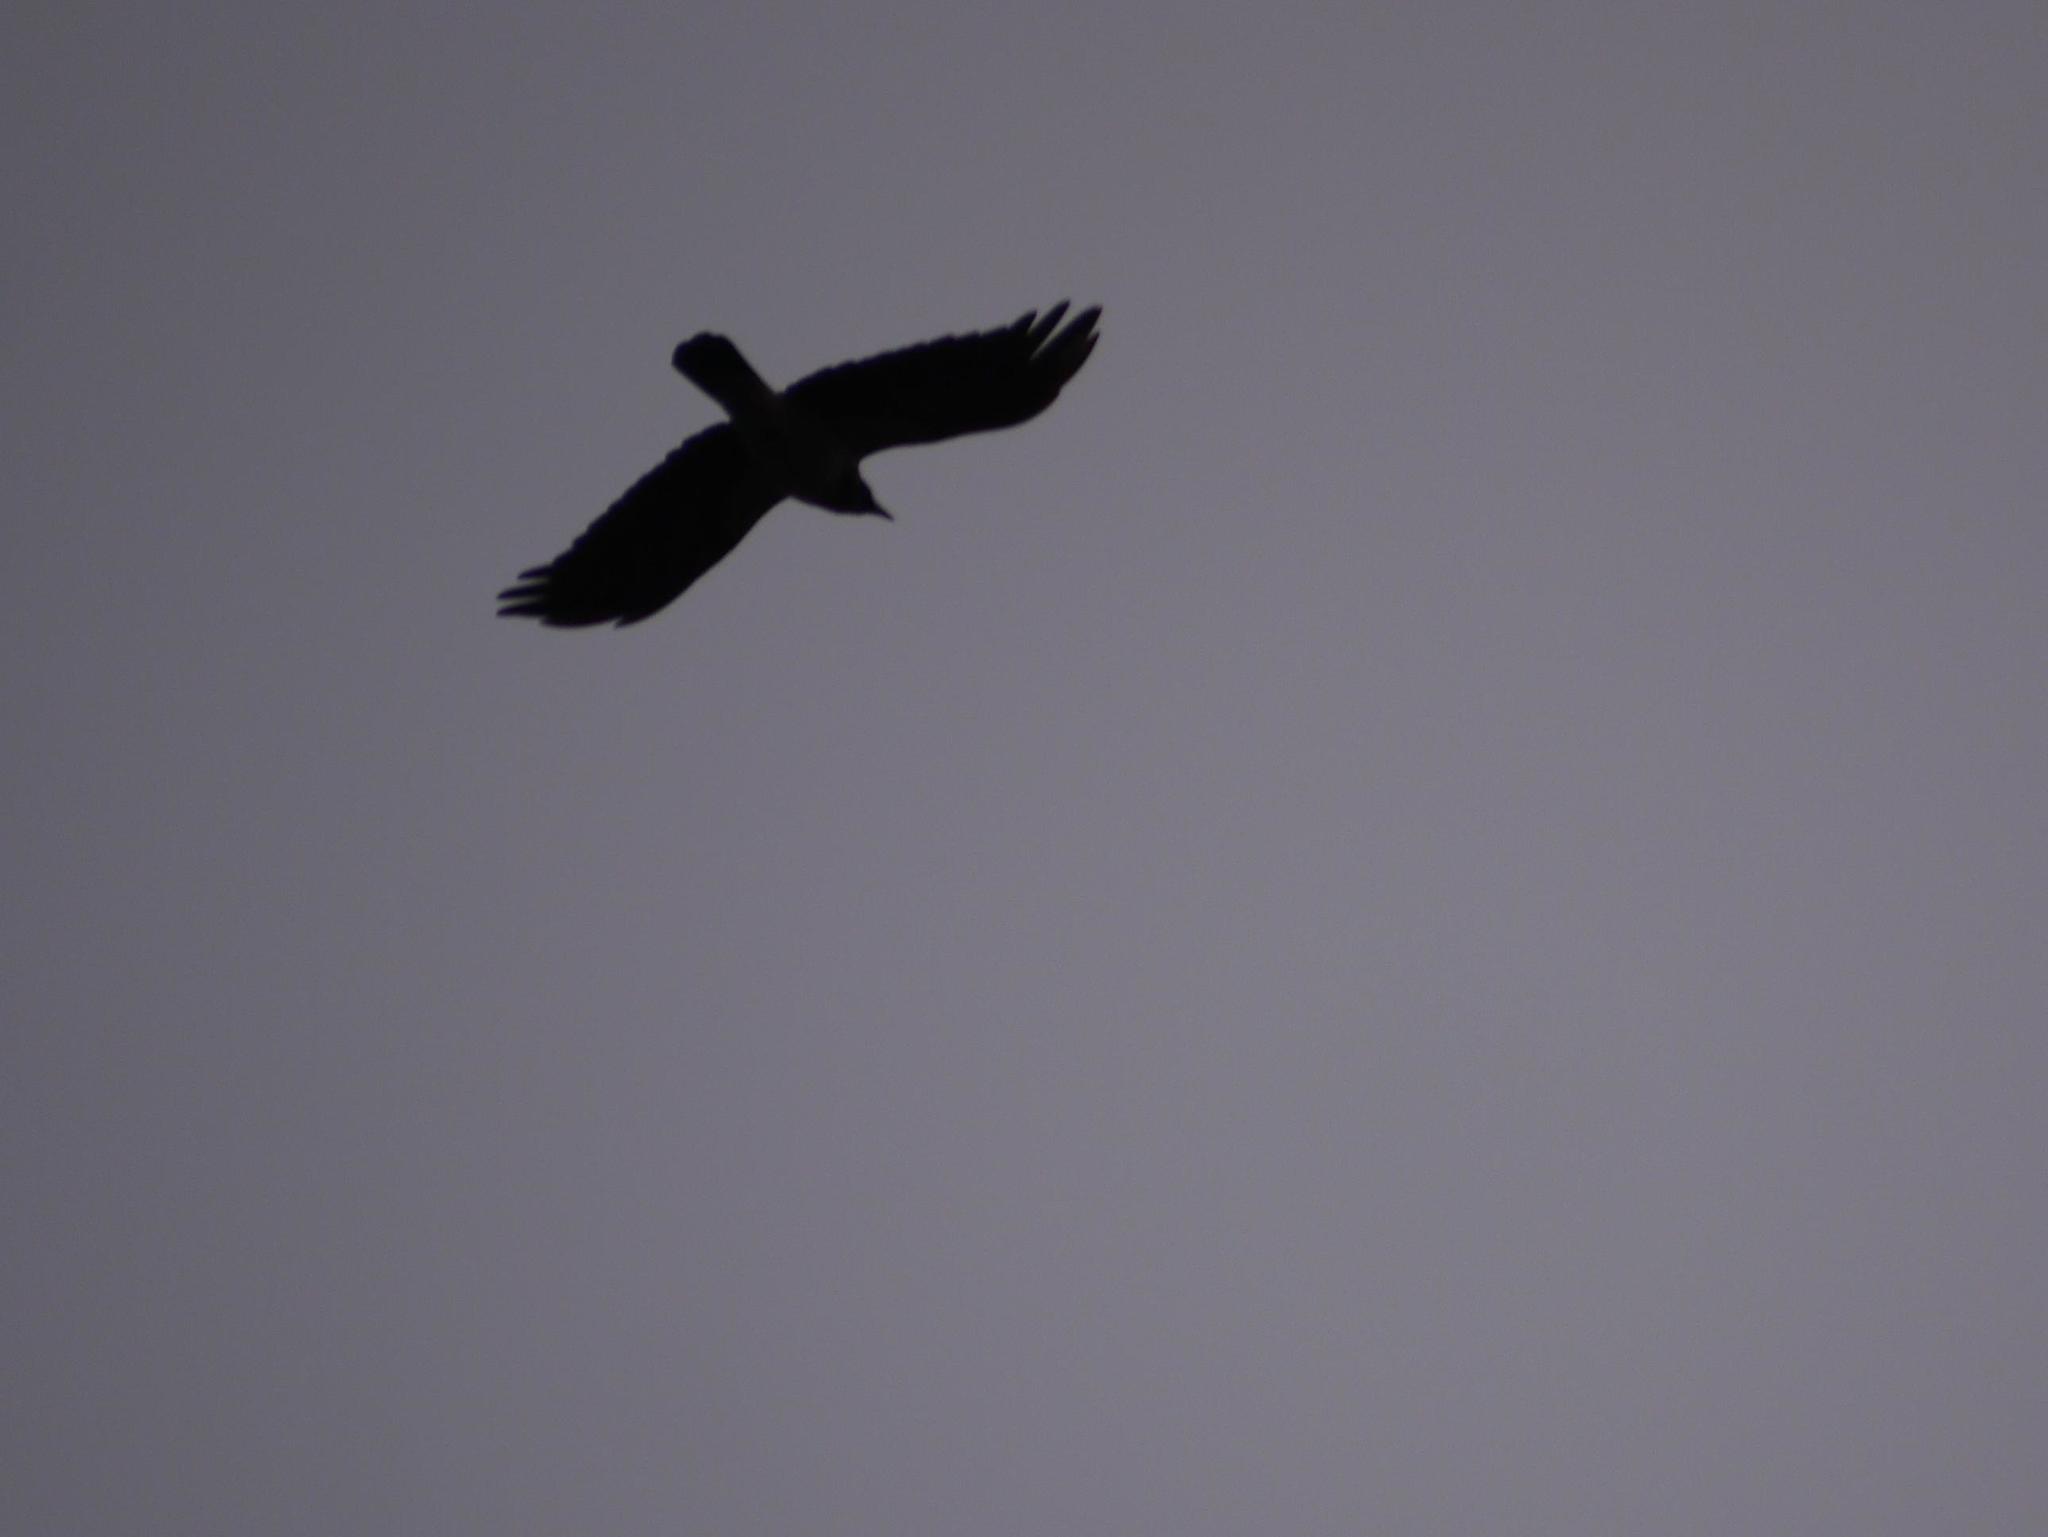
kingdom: Animalia
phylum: Chordata
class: Aves
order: Passeriformes
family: Corvidae
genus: Corvus
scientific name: Corvus cornix
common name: Hooded crow
